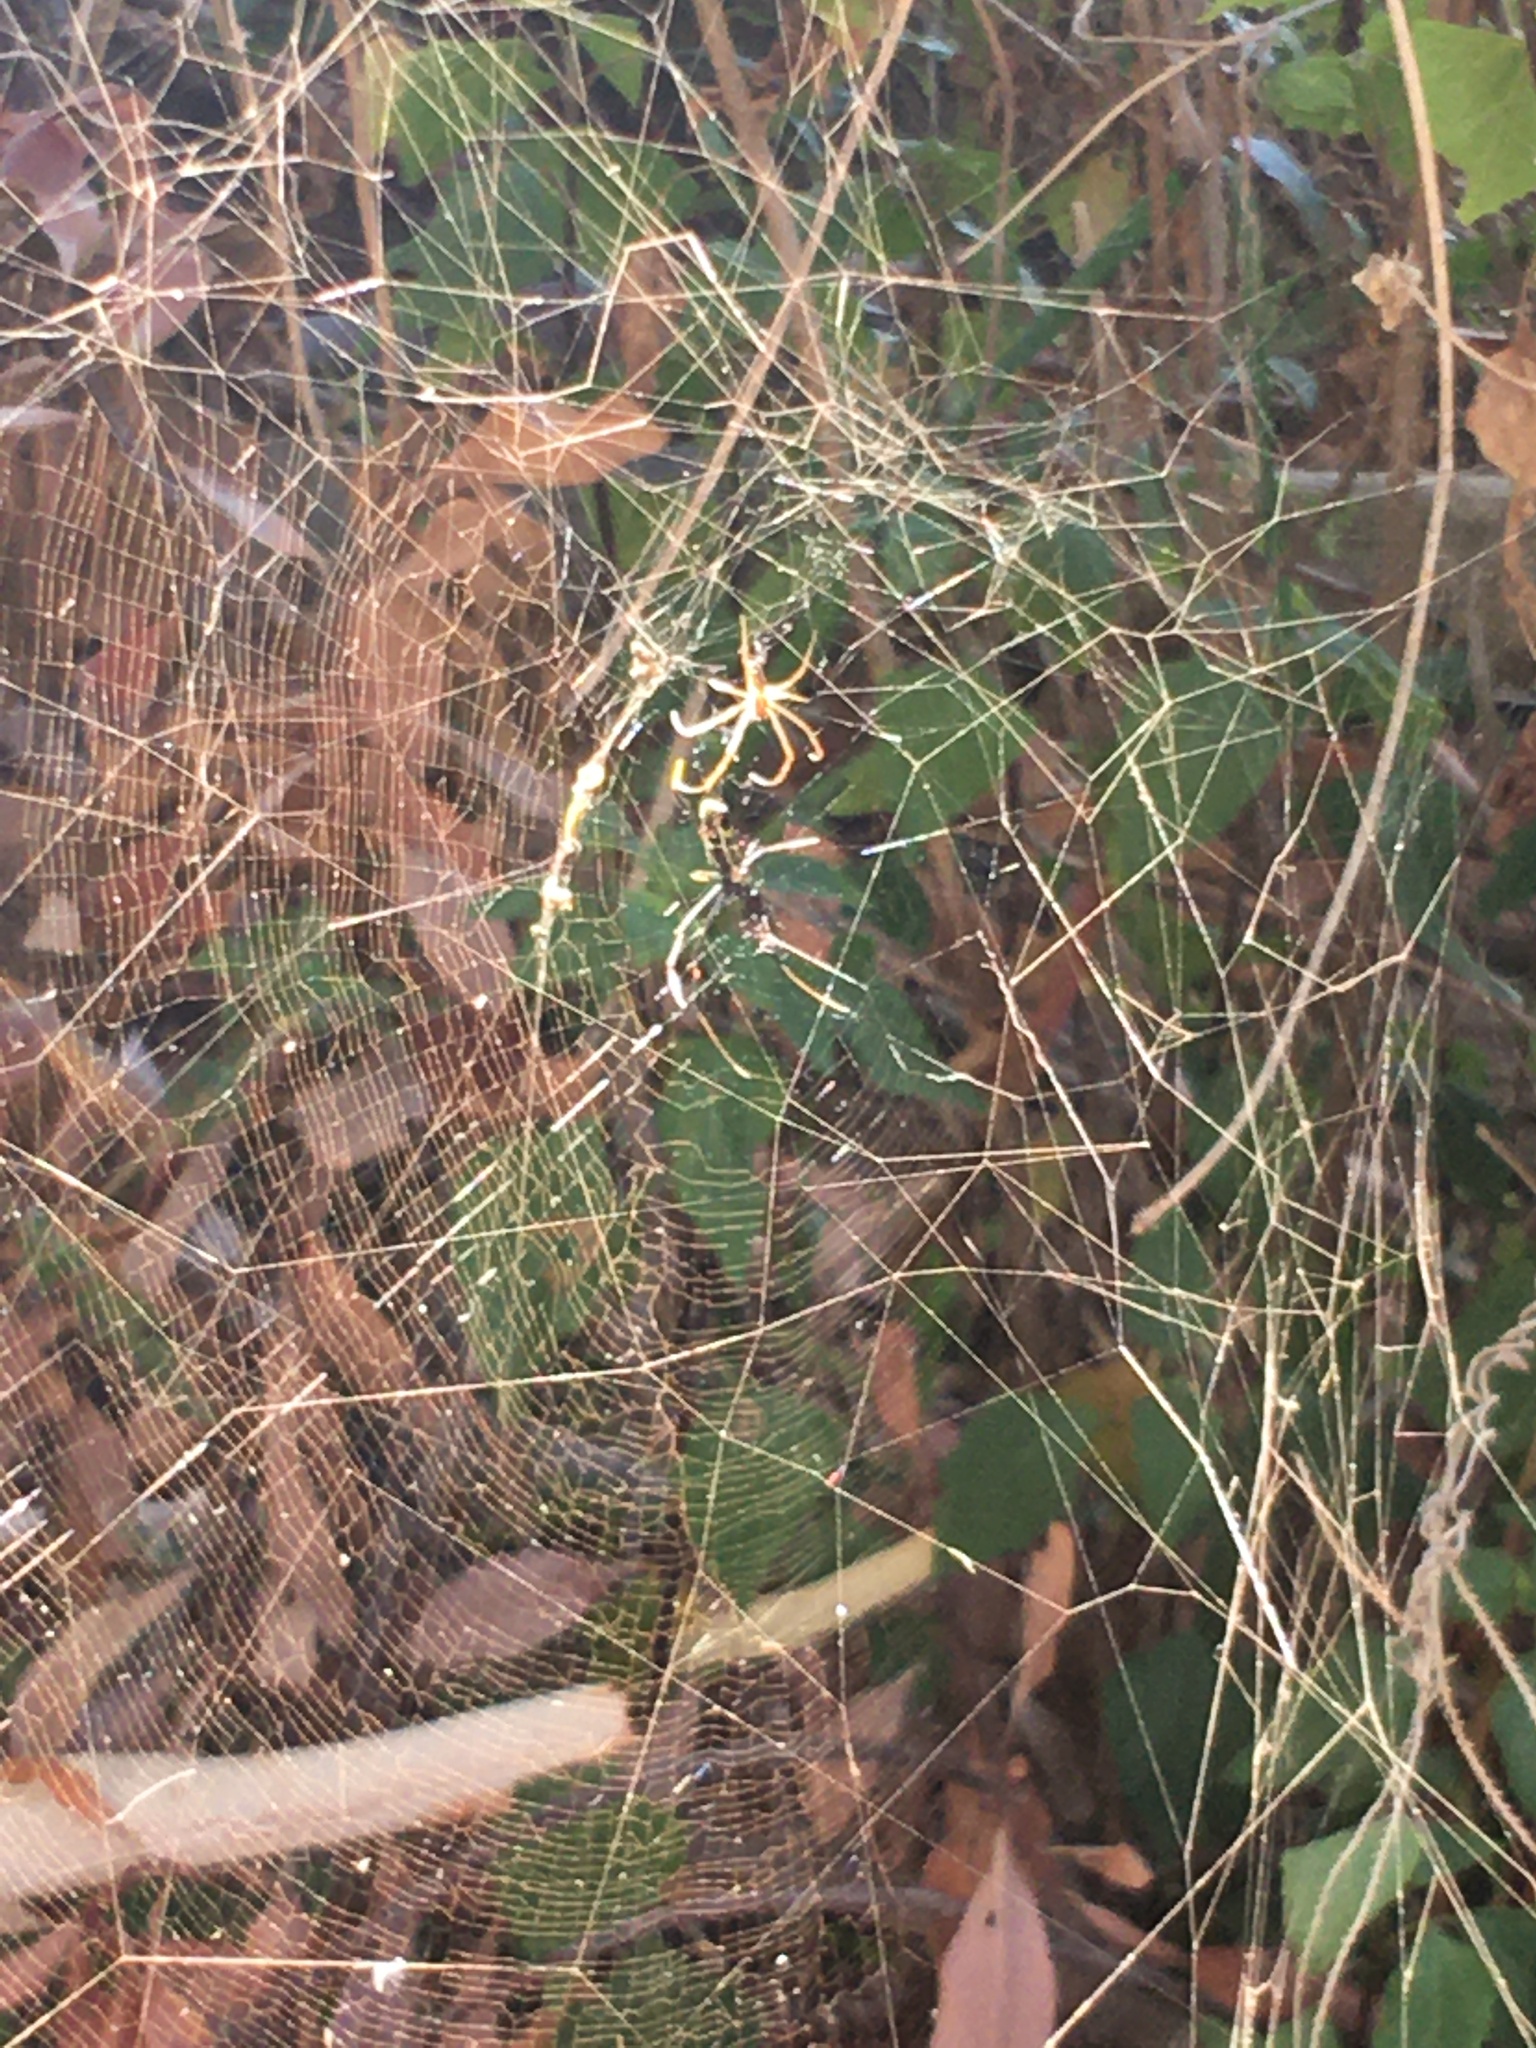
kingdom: Animalia
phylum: Arthropoda
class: Arachnida
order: Araneae
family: Araneidae
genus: Trichonephila
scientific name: Trichonephila fenestrata
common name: Hairy golden orb weaver
